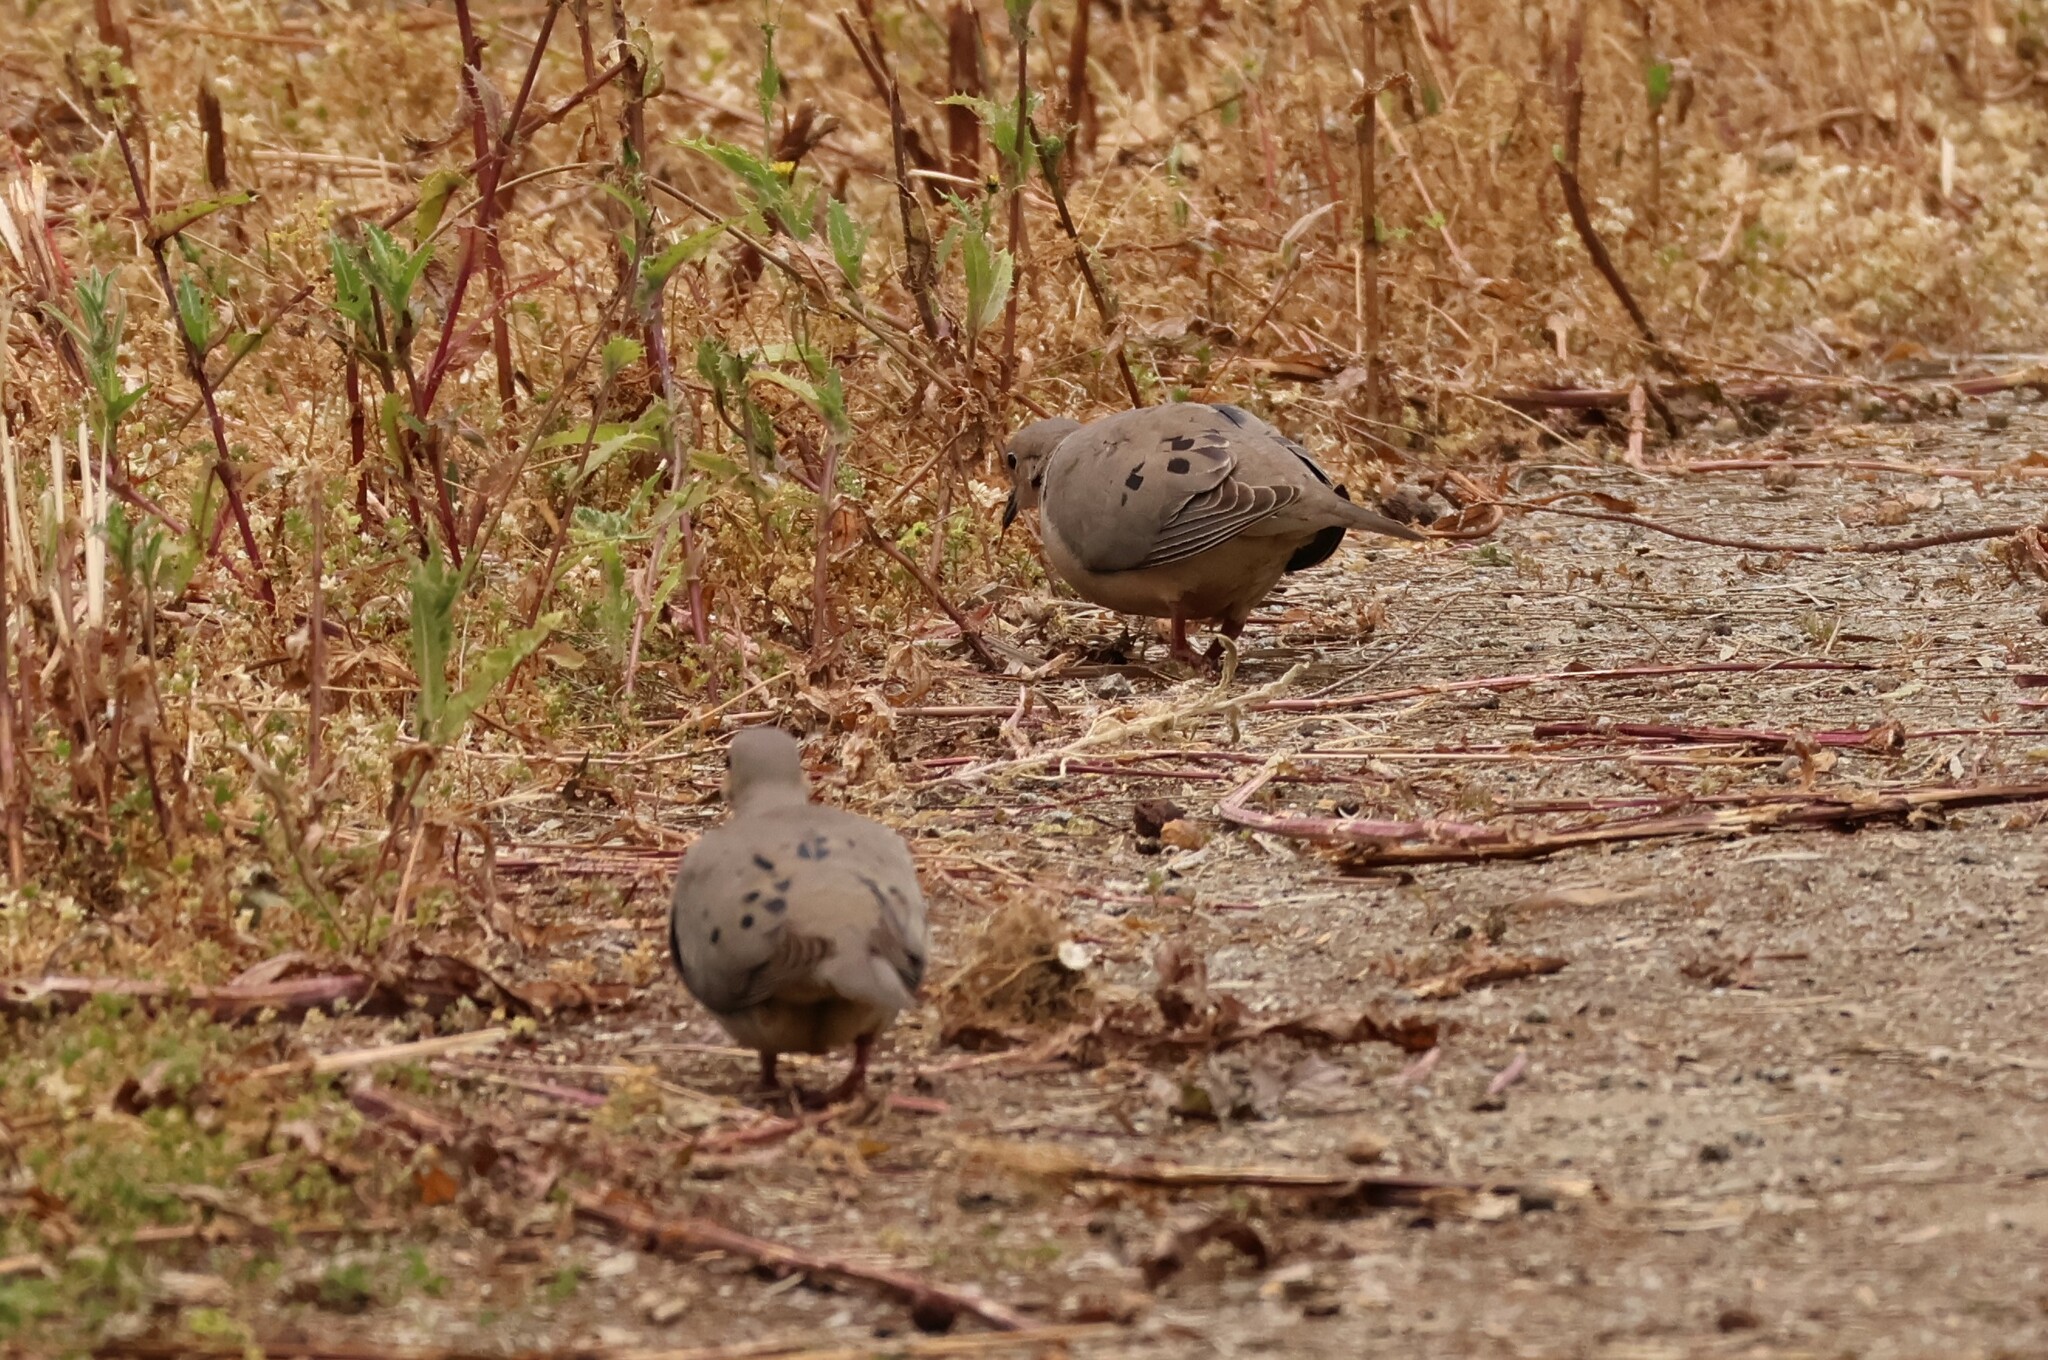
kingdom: Animalia
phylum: Chordata
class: Aves
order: Columbiformes
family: Columbidae
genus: Zenaida
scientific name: Zenaida macroura
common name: Mourning dove
